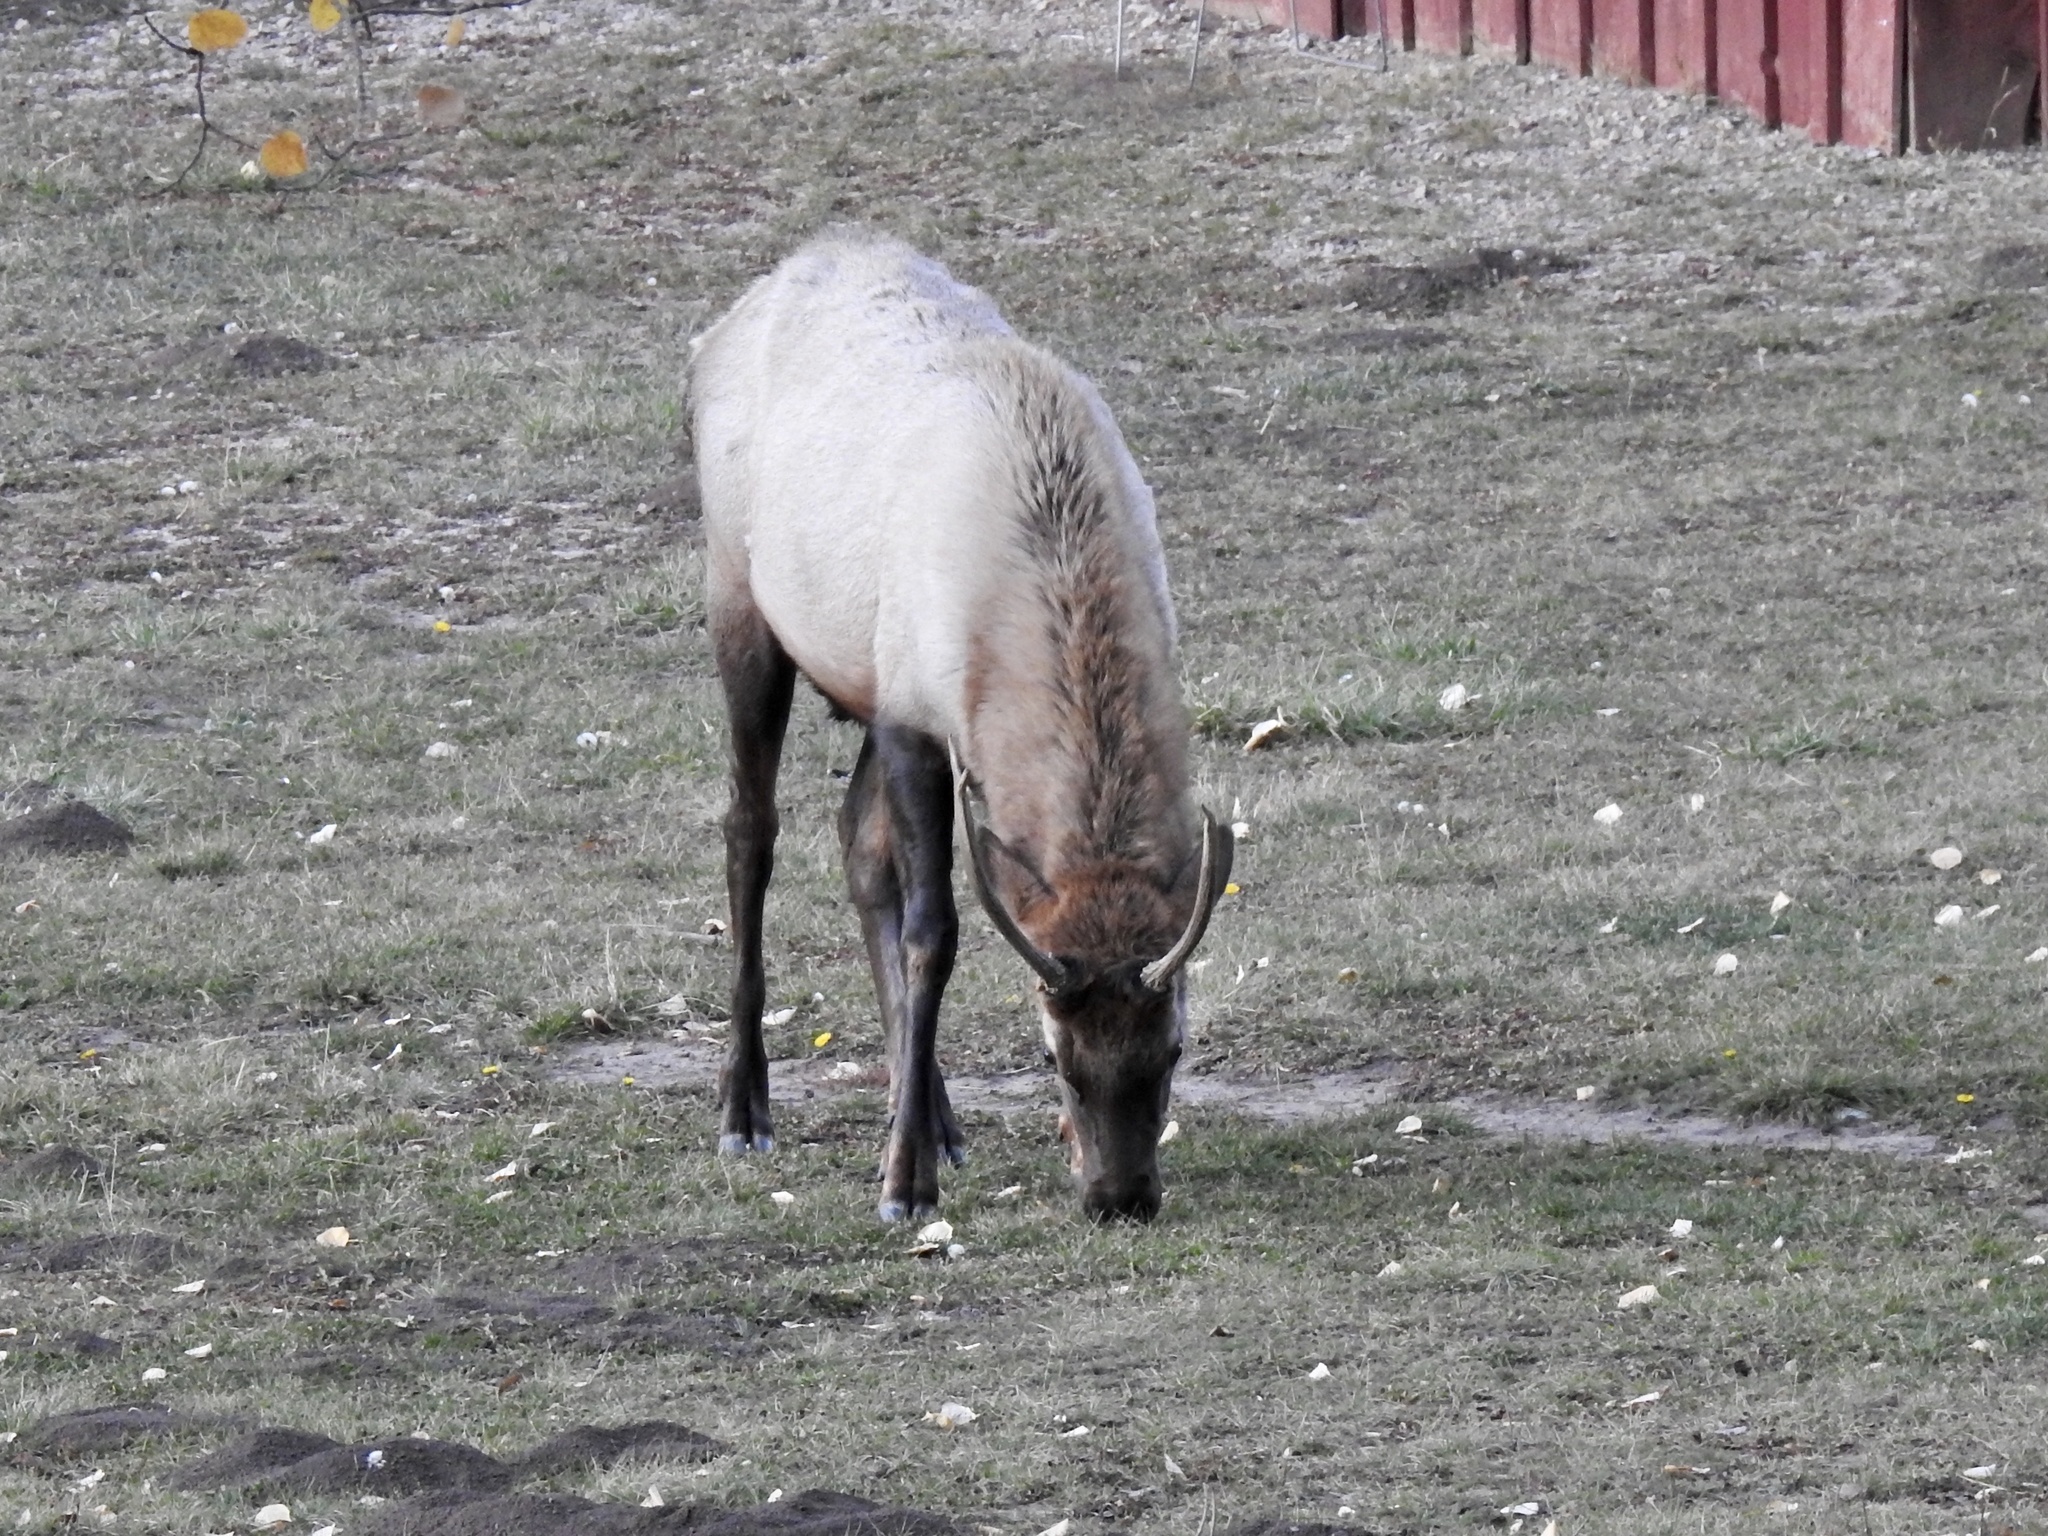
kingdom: Animalia
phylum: Chordata
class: Mammalia
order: Artiodactyla
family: Cervidae
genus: Cervus
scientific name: Cervus elaphus
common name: Red deer
